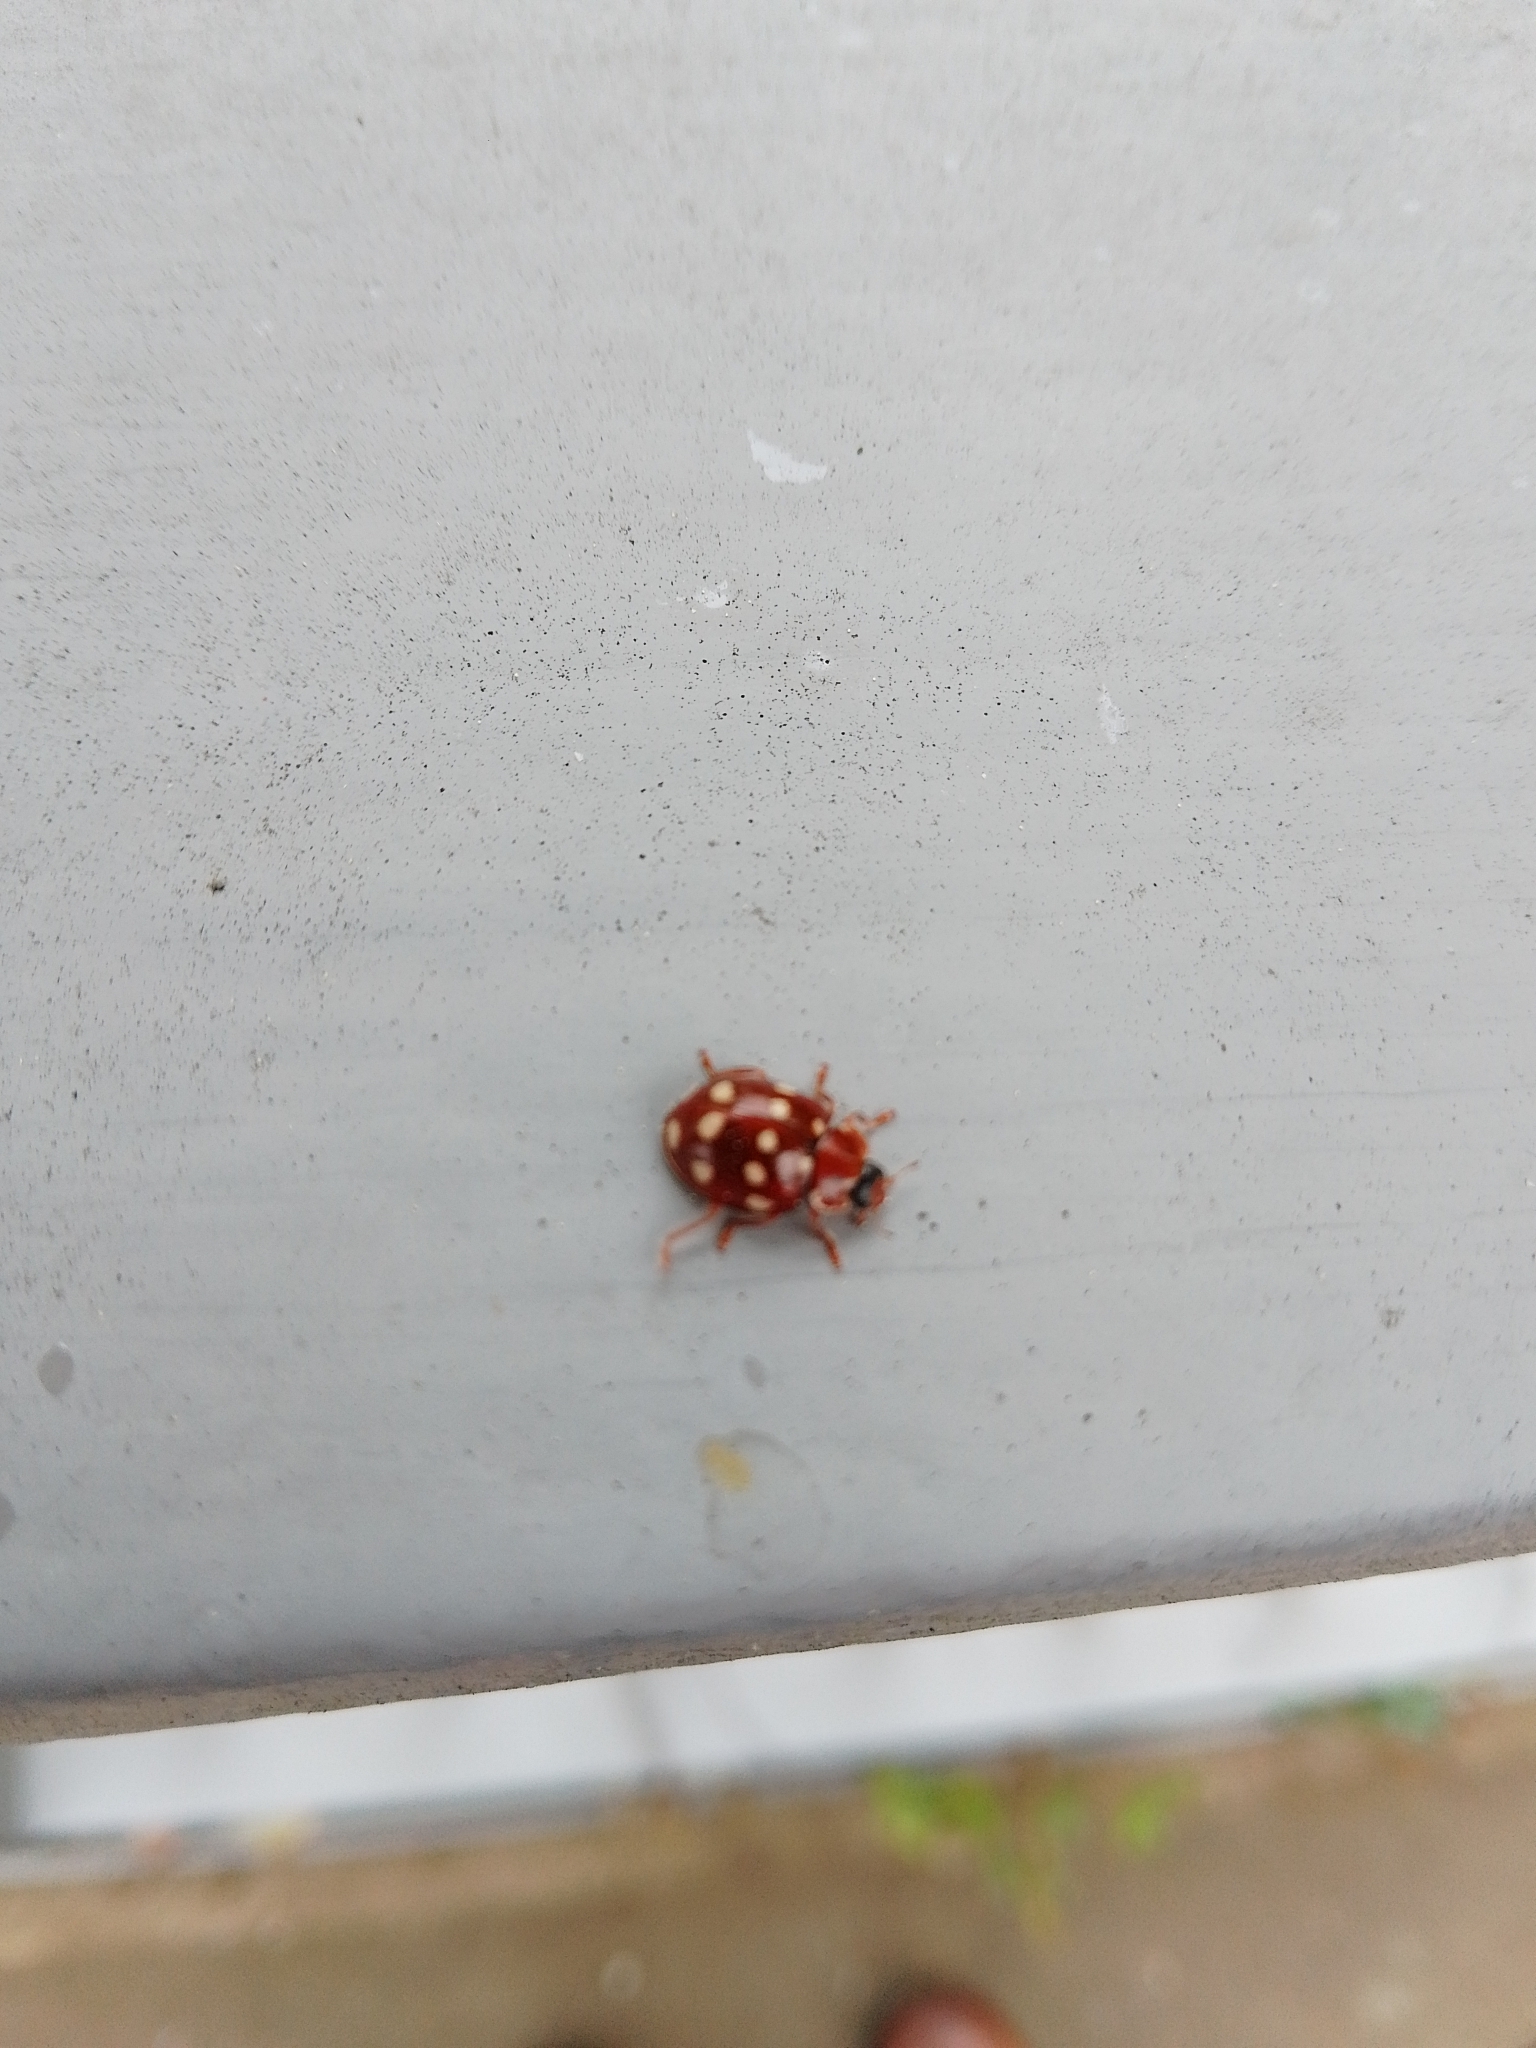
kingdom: Animalia
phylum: Arthropoda
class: Insecta
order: Coleoptera
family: Coccinellidae
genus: Calvia
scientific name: Calvia quatuordecimguttata
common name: Cream-spot ladybird
